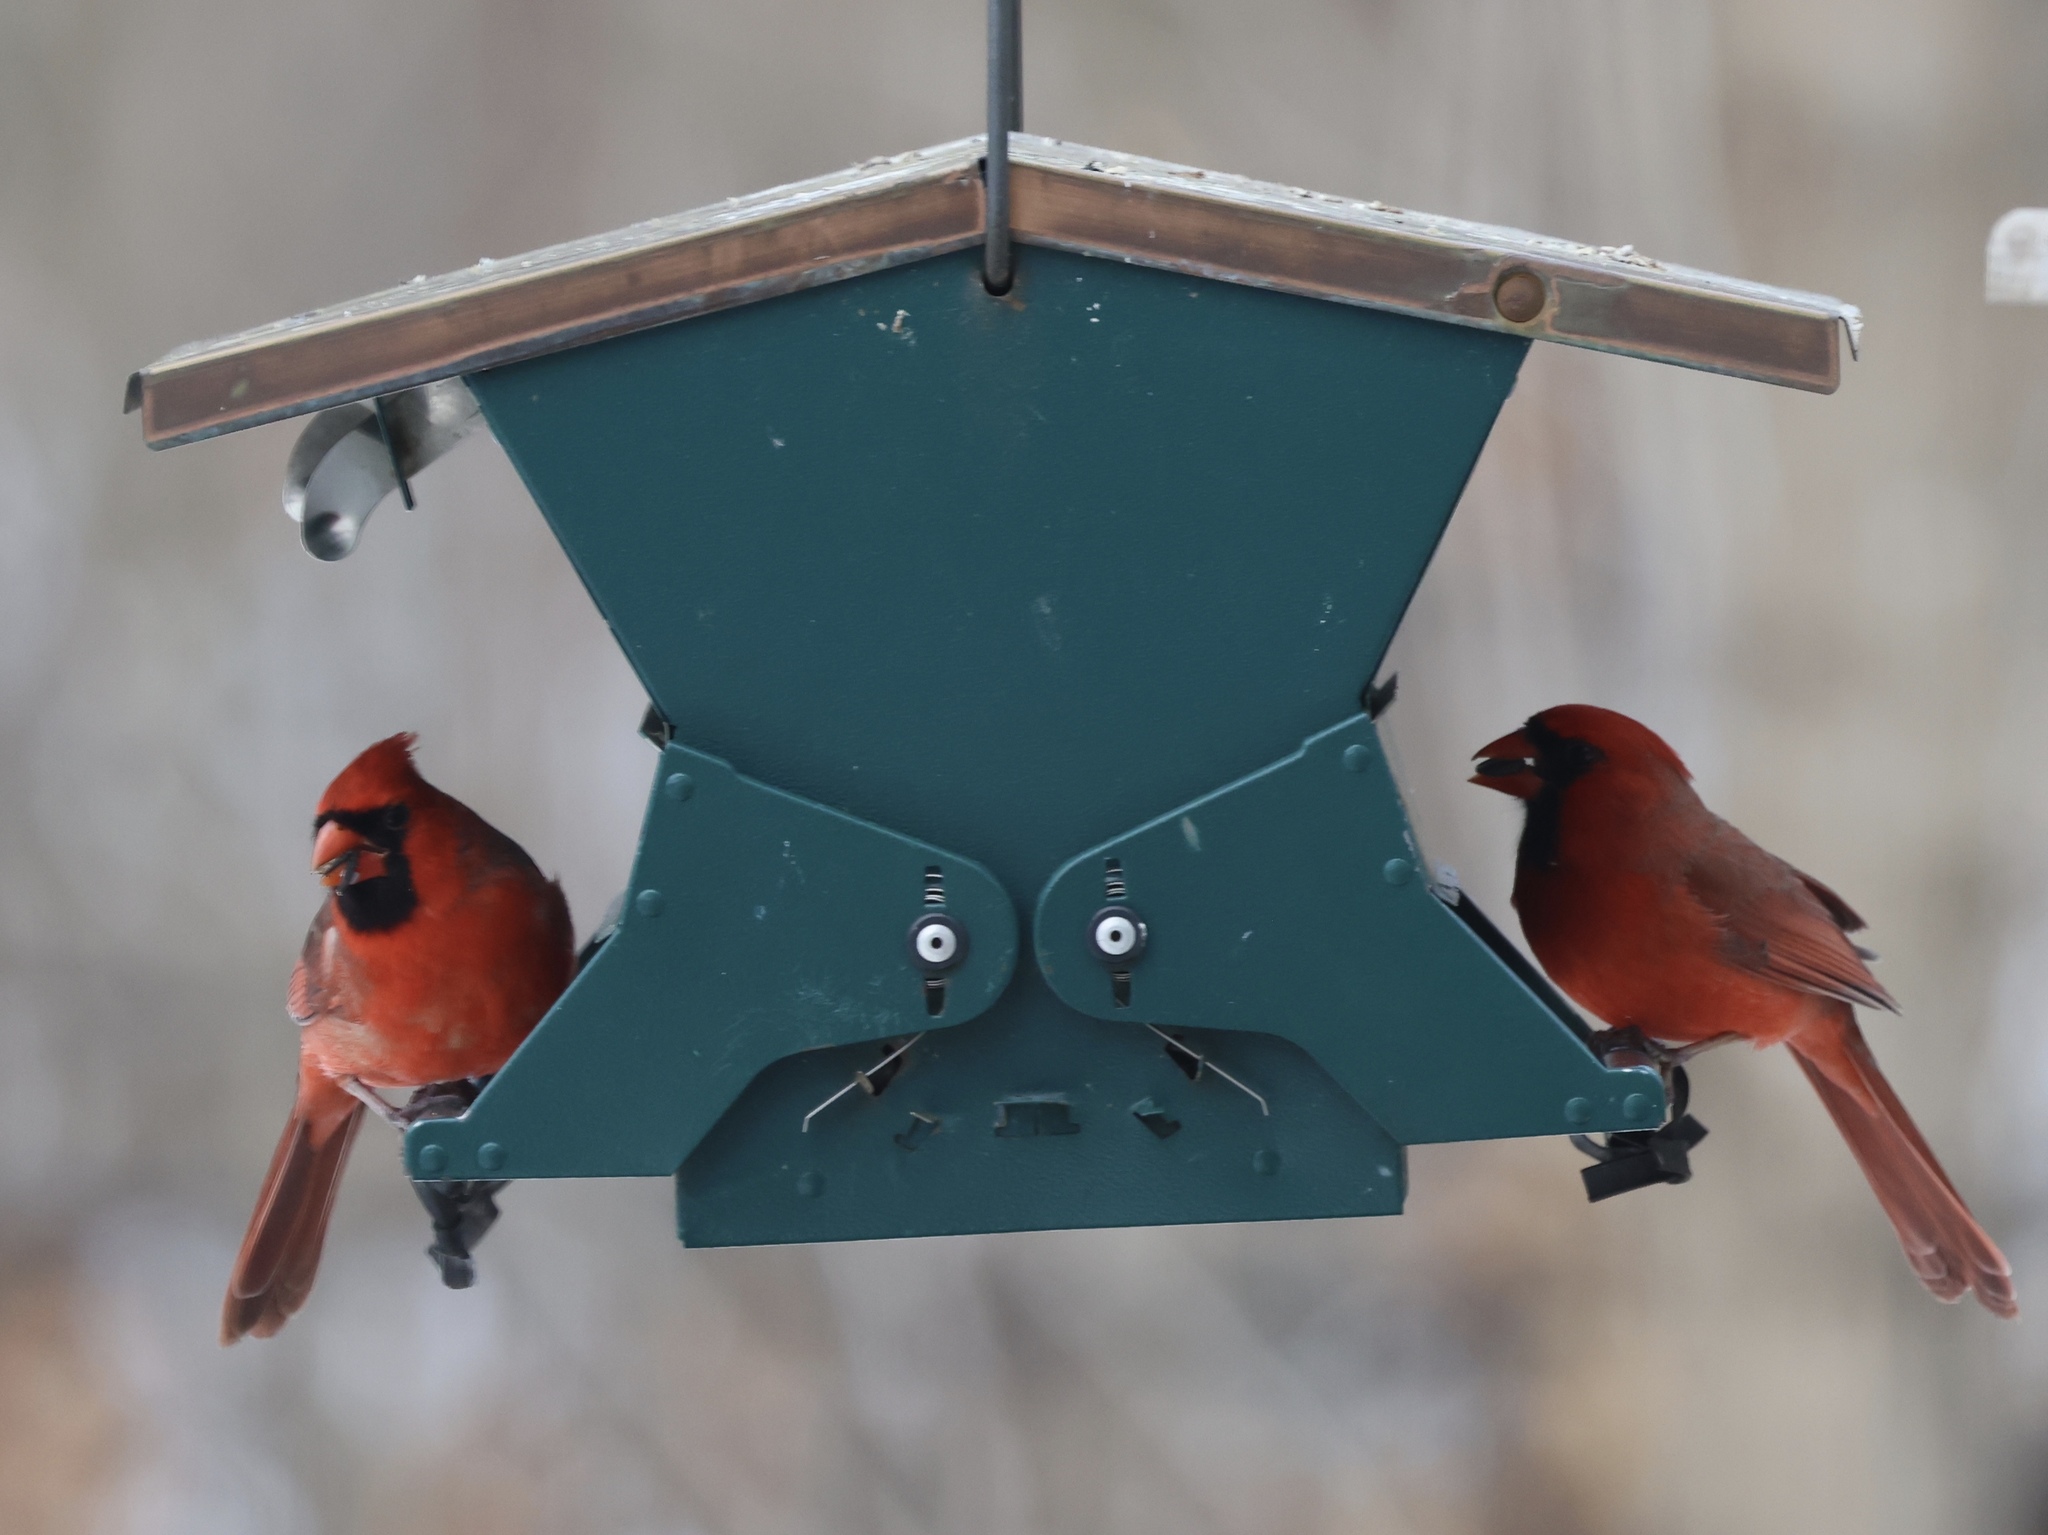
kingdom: Animalia
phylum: Chordata
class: Aves
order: Passeriformes
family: Cardinalidae
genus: Cardinalis
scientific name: Cardinalis cardinalis
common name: Northern cardinal
